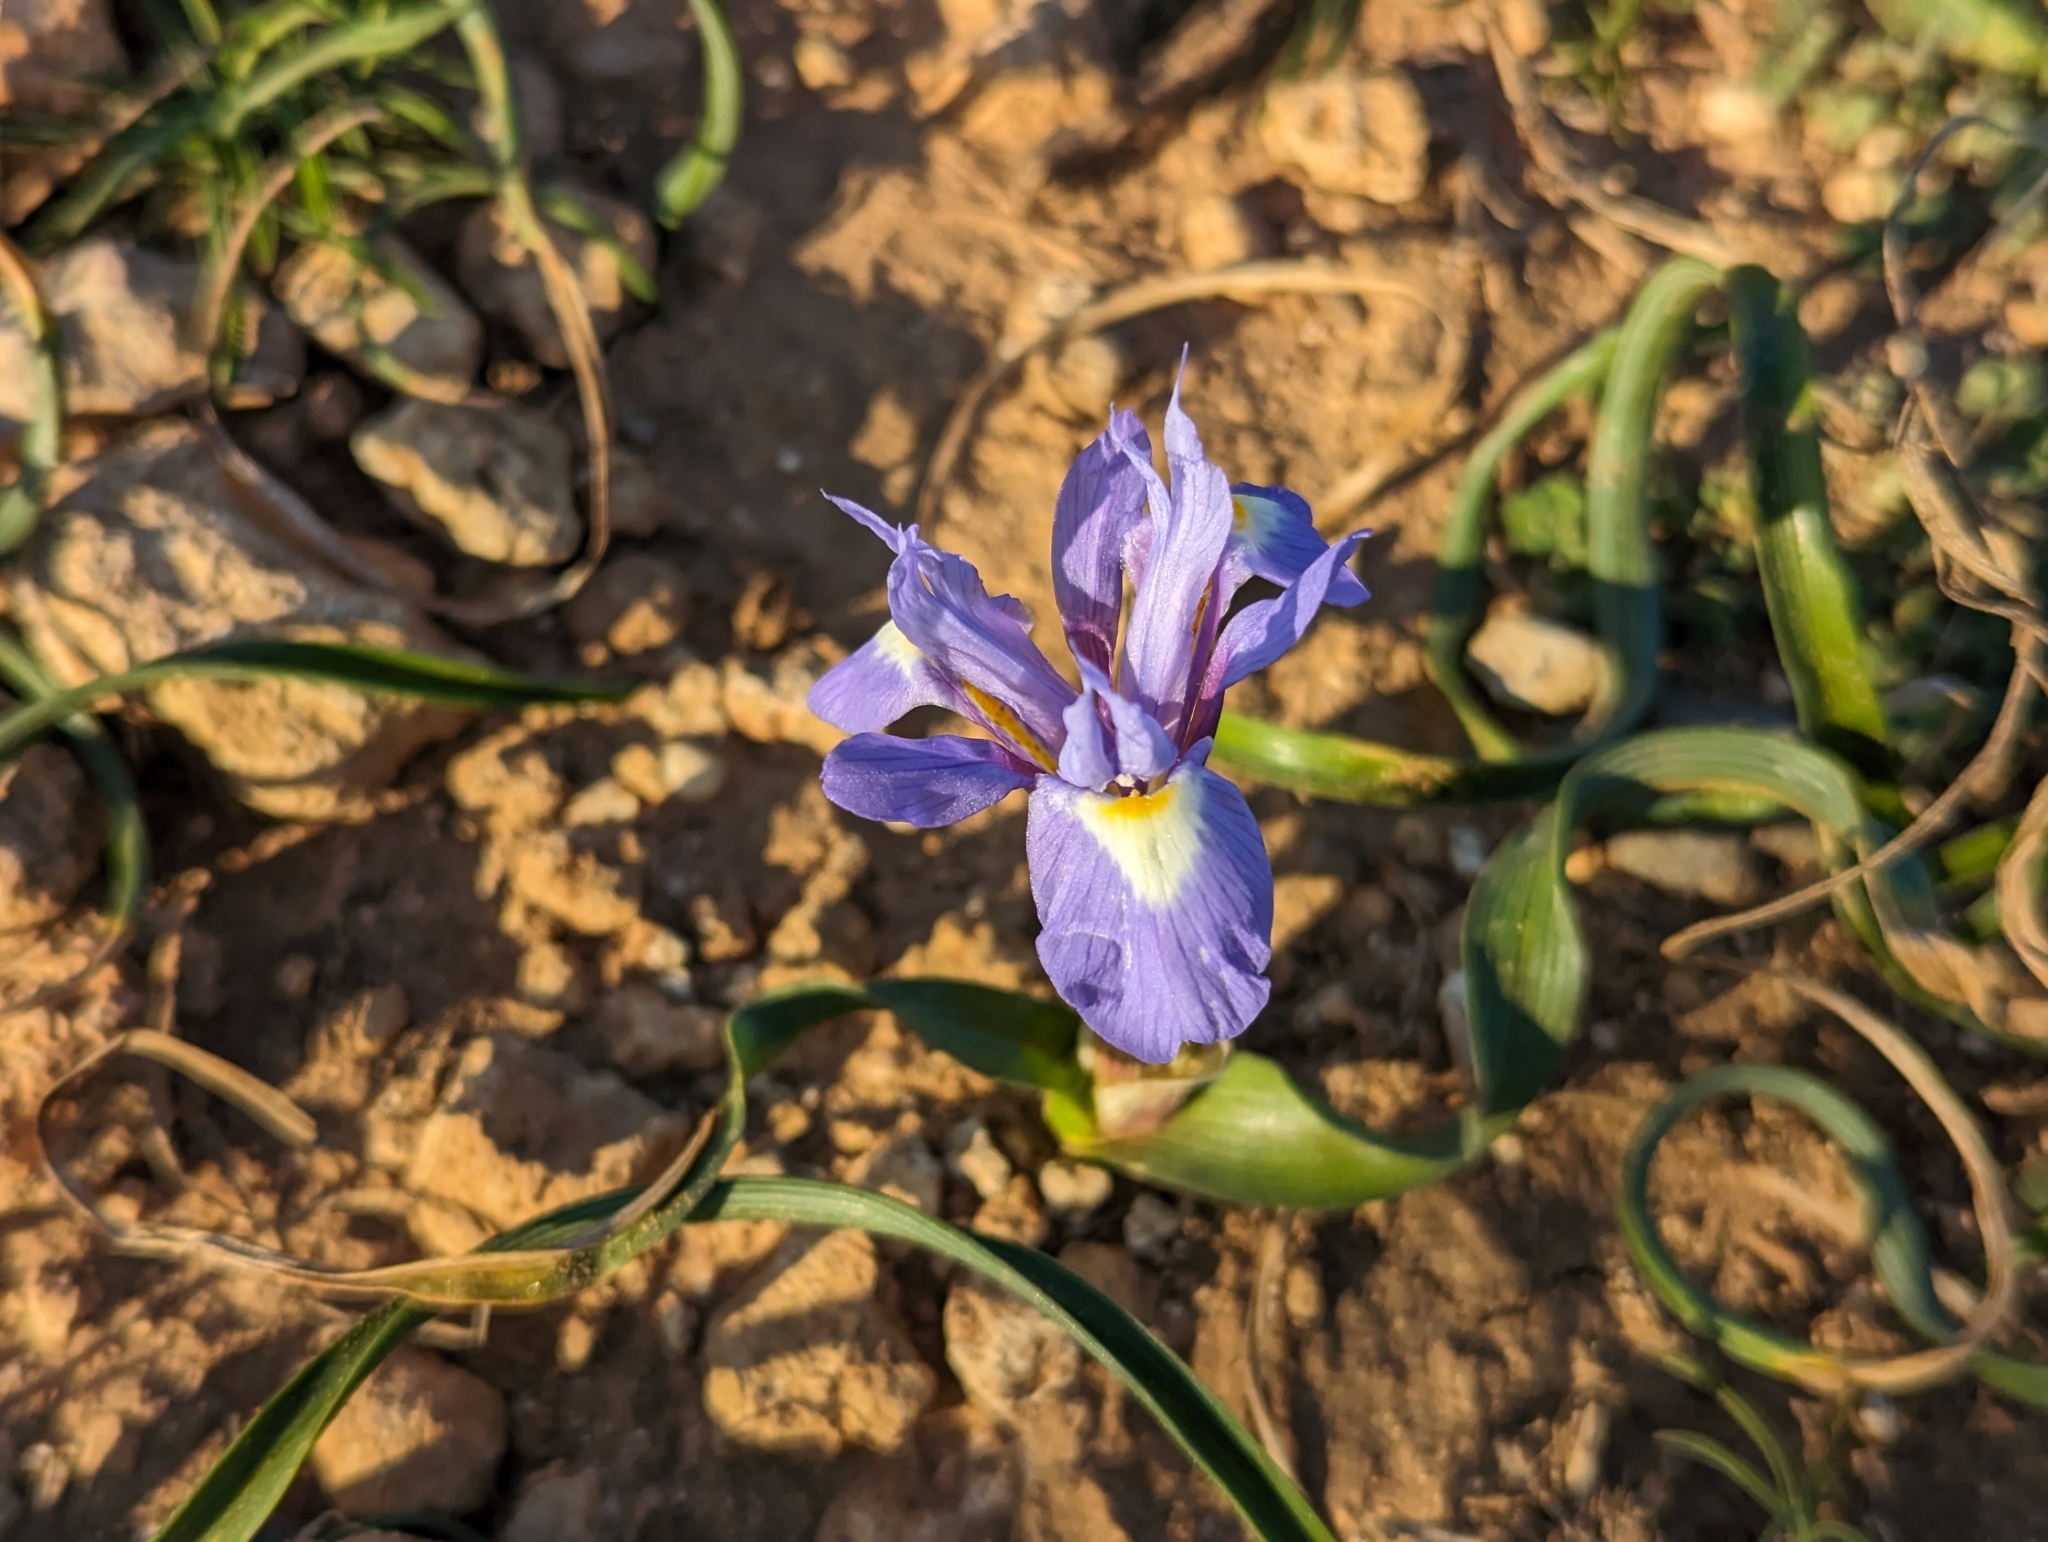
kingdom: Plantae
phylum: Tracheophyta
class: Liliopsida
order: Asparagales
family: Iridaceae
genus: Moraea
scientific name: Moraea sisyrinchium
